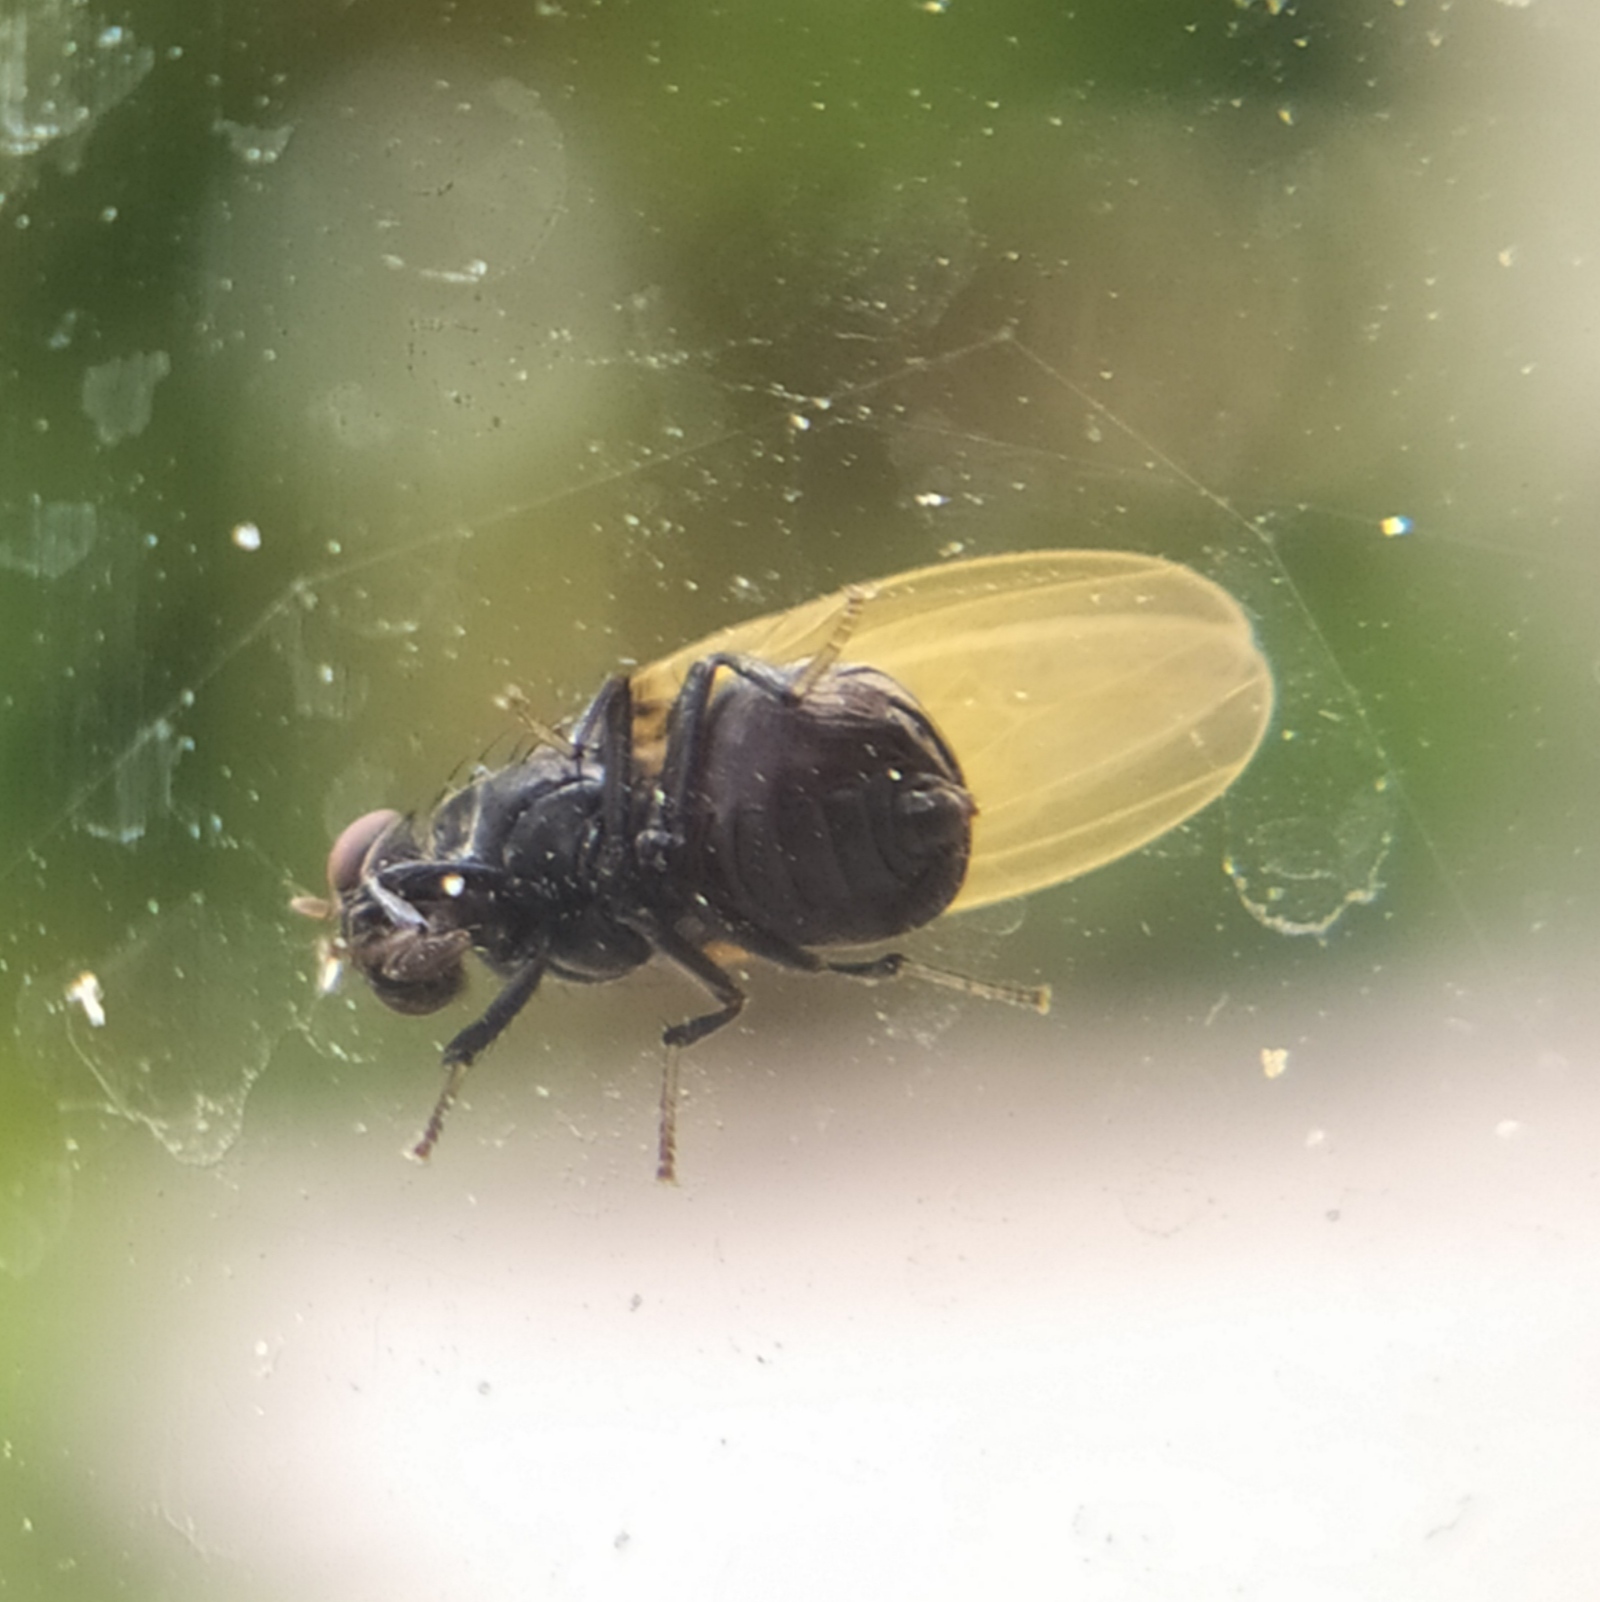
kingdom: Animalia
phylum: Arthropoda
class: Insecta
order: Diptera
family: Lauxaniidae
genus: Minettia
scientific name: Minettia longipennis
